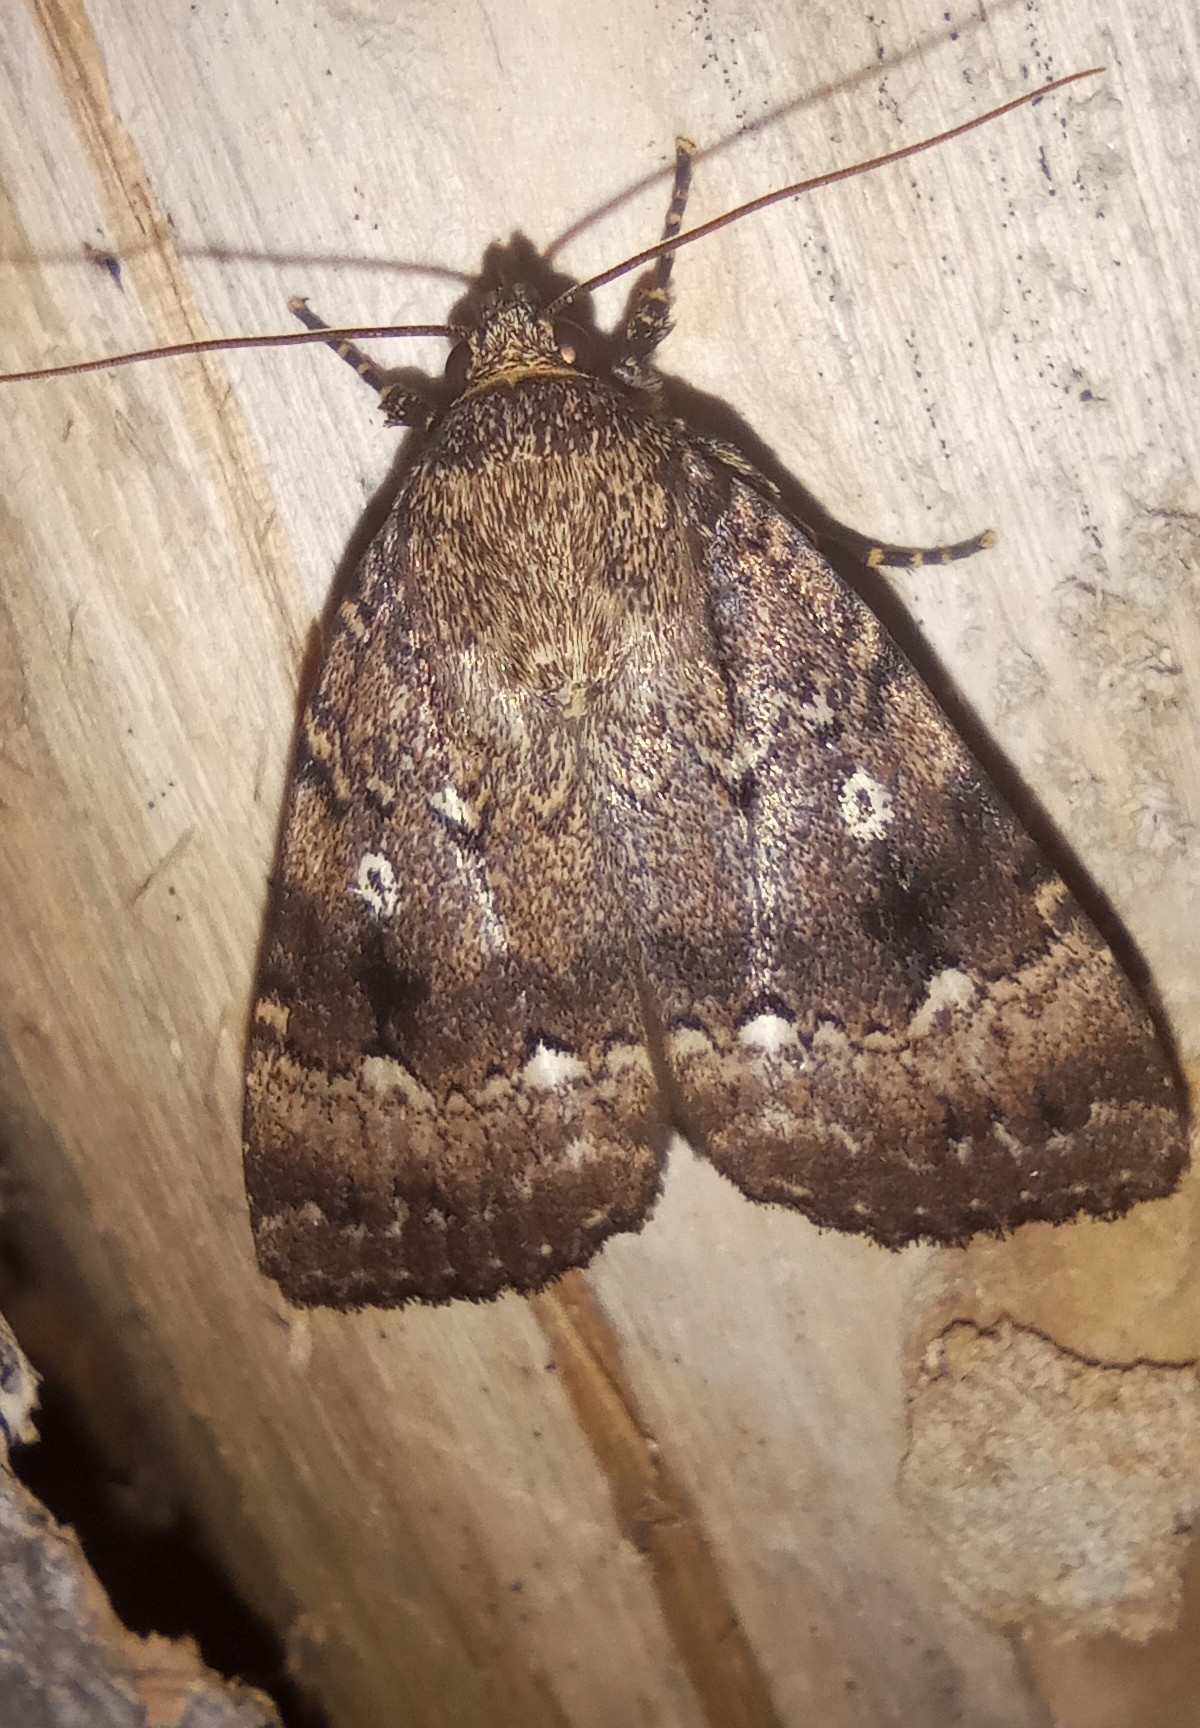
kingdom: Animalia
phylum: Arthropoda
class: Insecta
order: Lepidoptera
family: Noctuidae
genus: Amphipyra
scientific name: Amphipyra pyramidea
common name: Copper underwing
